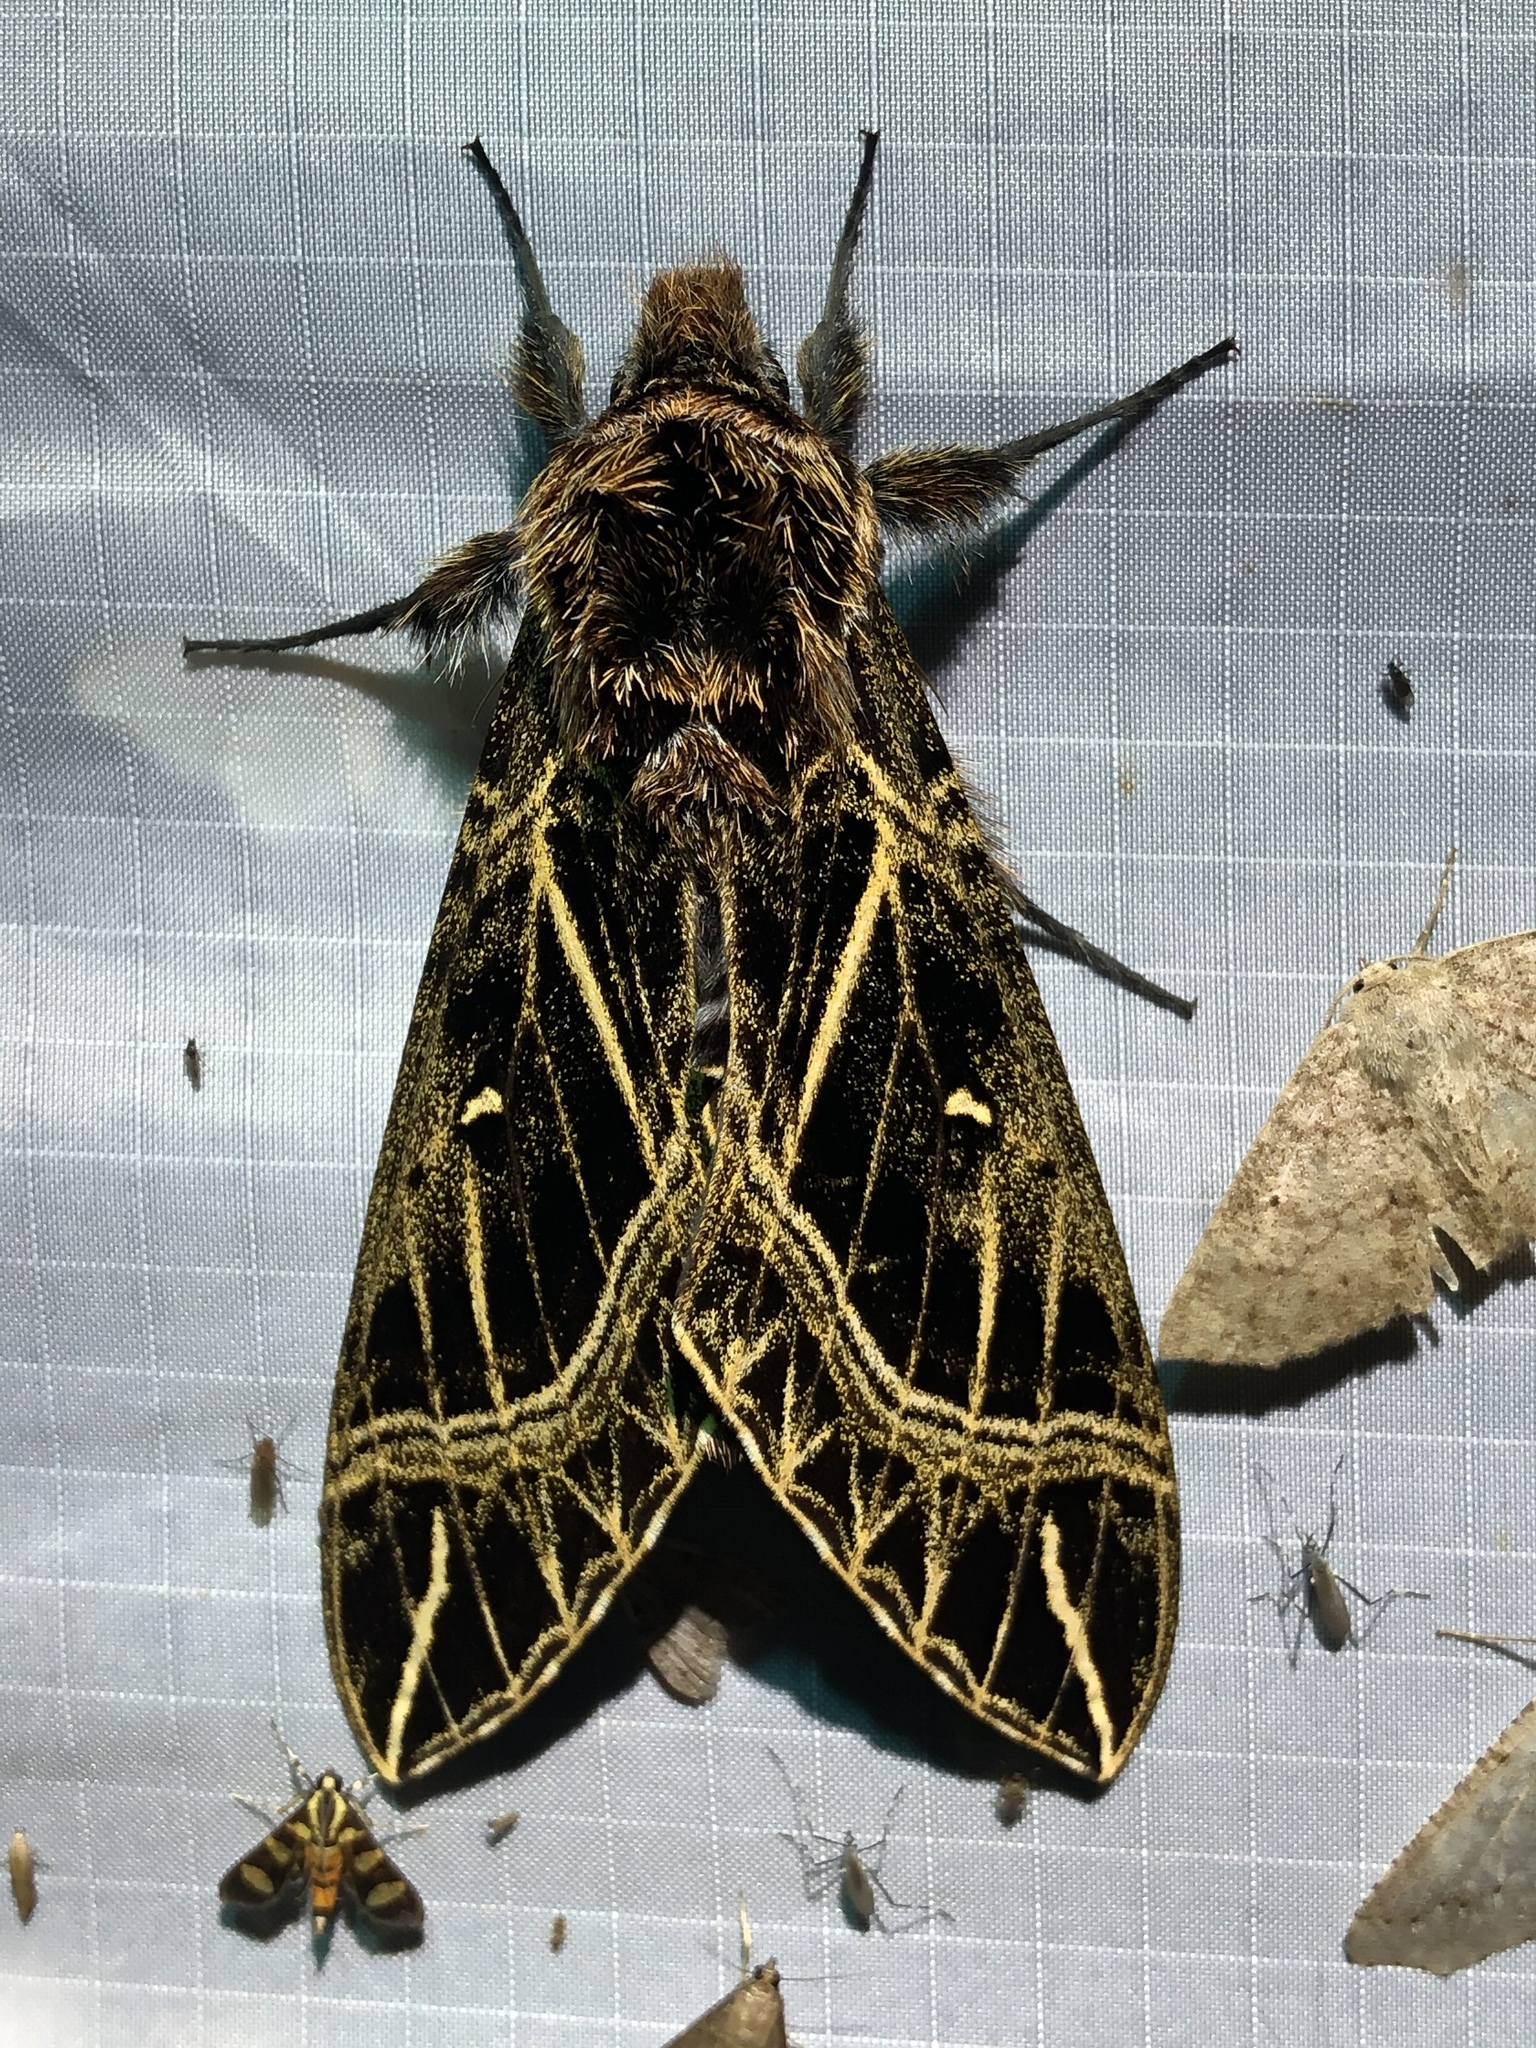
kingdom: Animalia
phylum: Arthropoda
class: Insecta
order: Lepidoptera
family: Sphingidae
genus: Euryglottis
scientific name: Euryglottis aper
